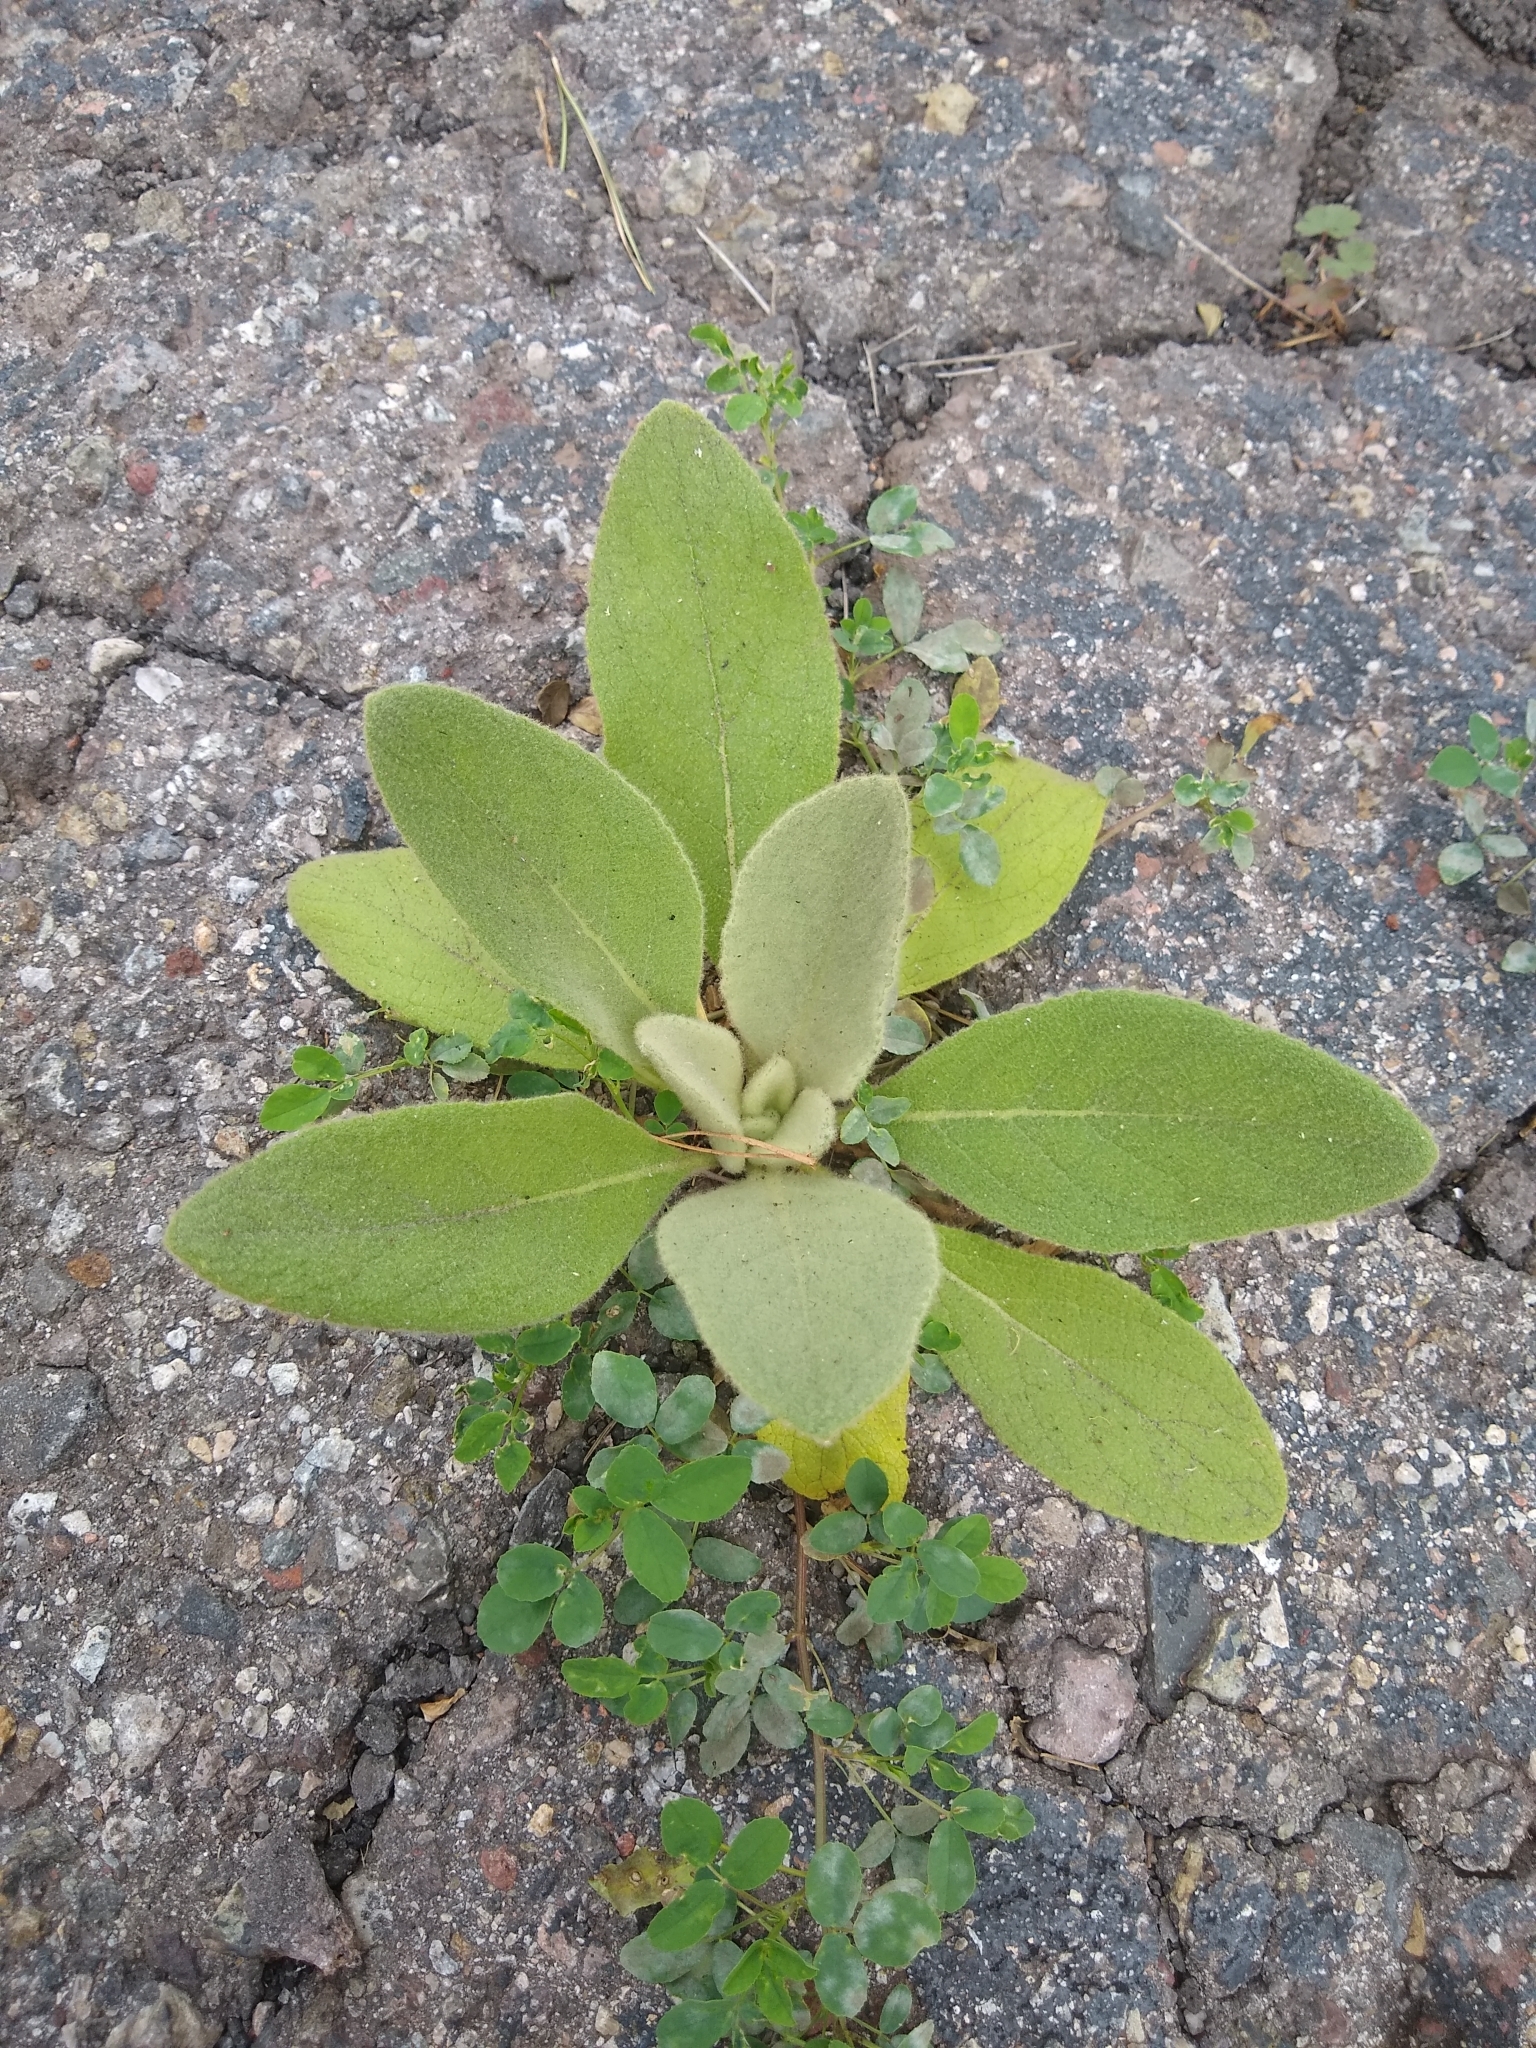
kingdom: Plantae
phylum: Tracheophyta
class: Magnoliopsida
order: Lamiales
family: Scrophulariaceae
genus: Verbascum
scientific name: Verbascum thapsus
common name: Common mullein
